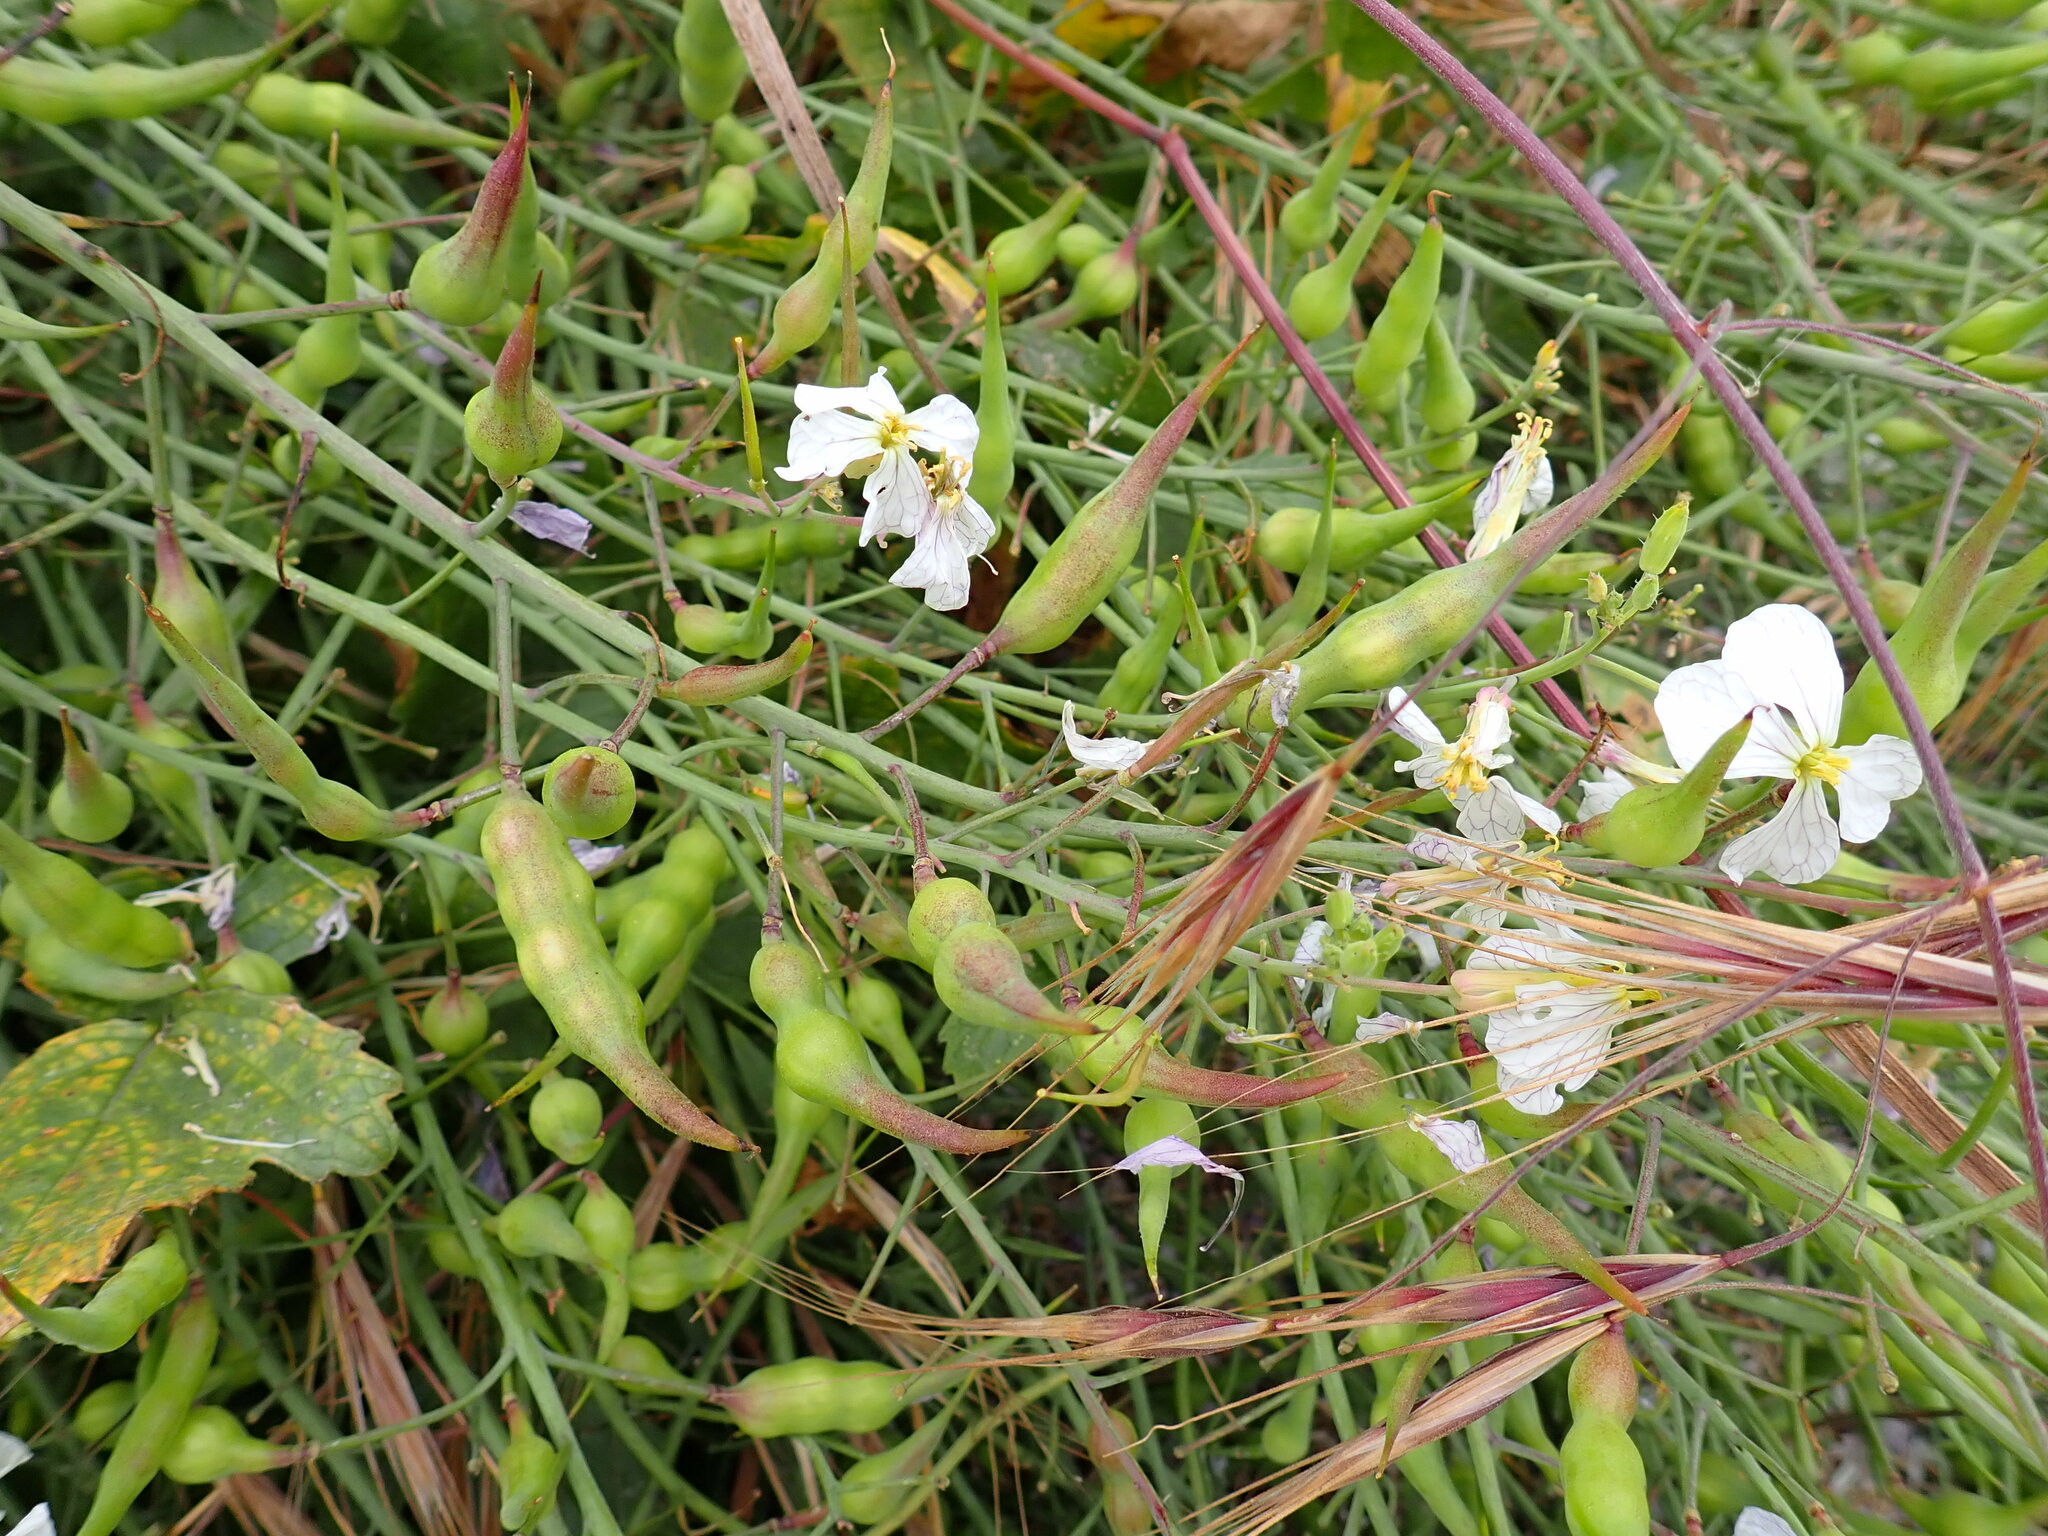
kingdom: Plantae
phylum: Tracheophyta
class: Magnoliopsida
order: Brassicales
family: Brassicaceae
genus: Raphanus
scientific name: Raphanus sativus
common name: Cultivated radish
